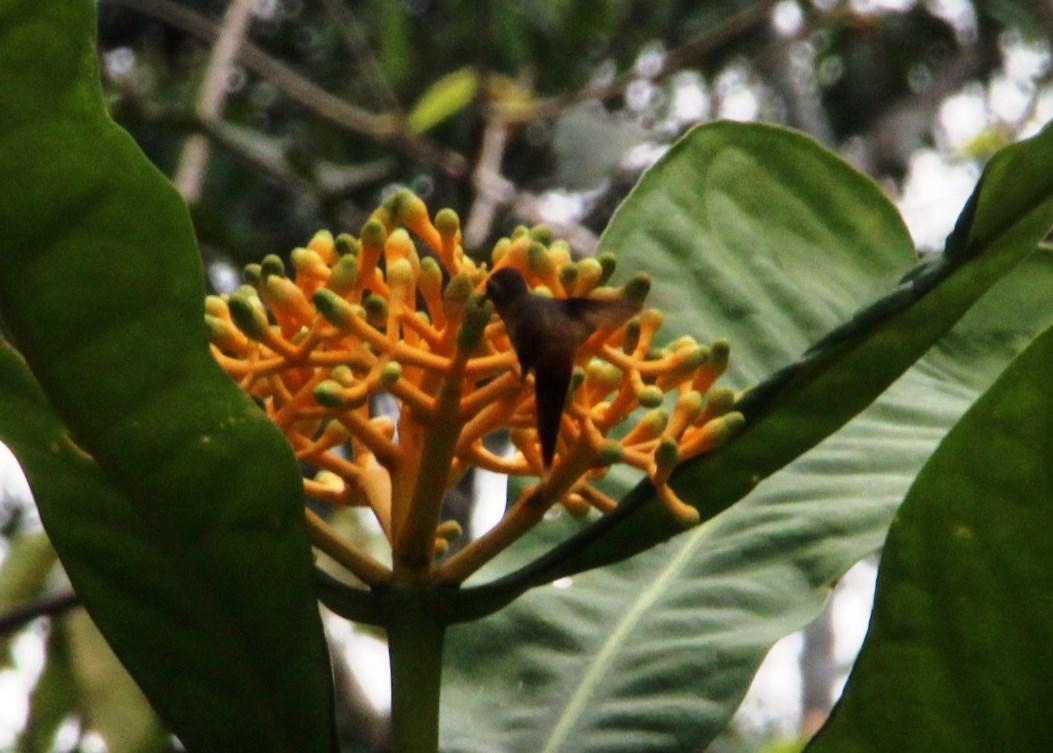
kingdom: Animalia
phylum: Chordata
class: Aves
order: Apodiformes
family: Trochilidae
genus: Phaethornis
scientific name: Phaethornis ruber
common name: Reddish hermit
